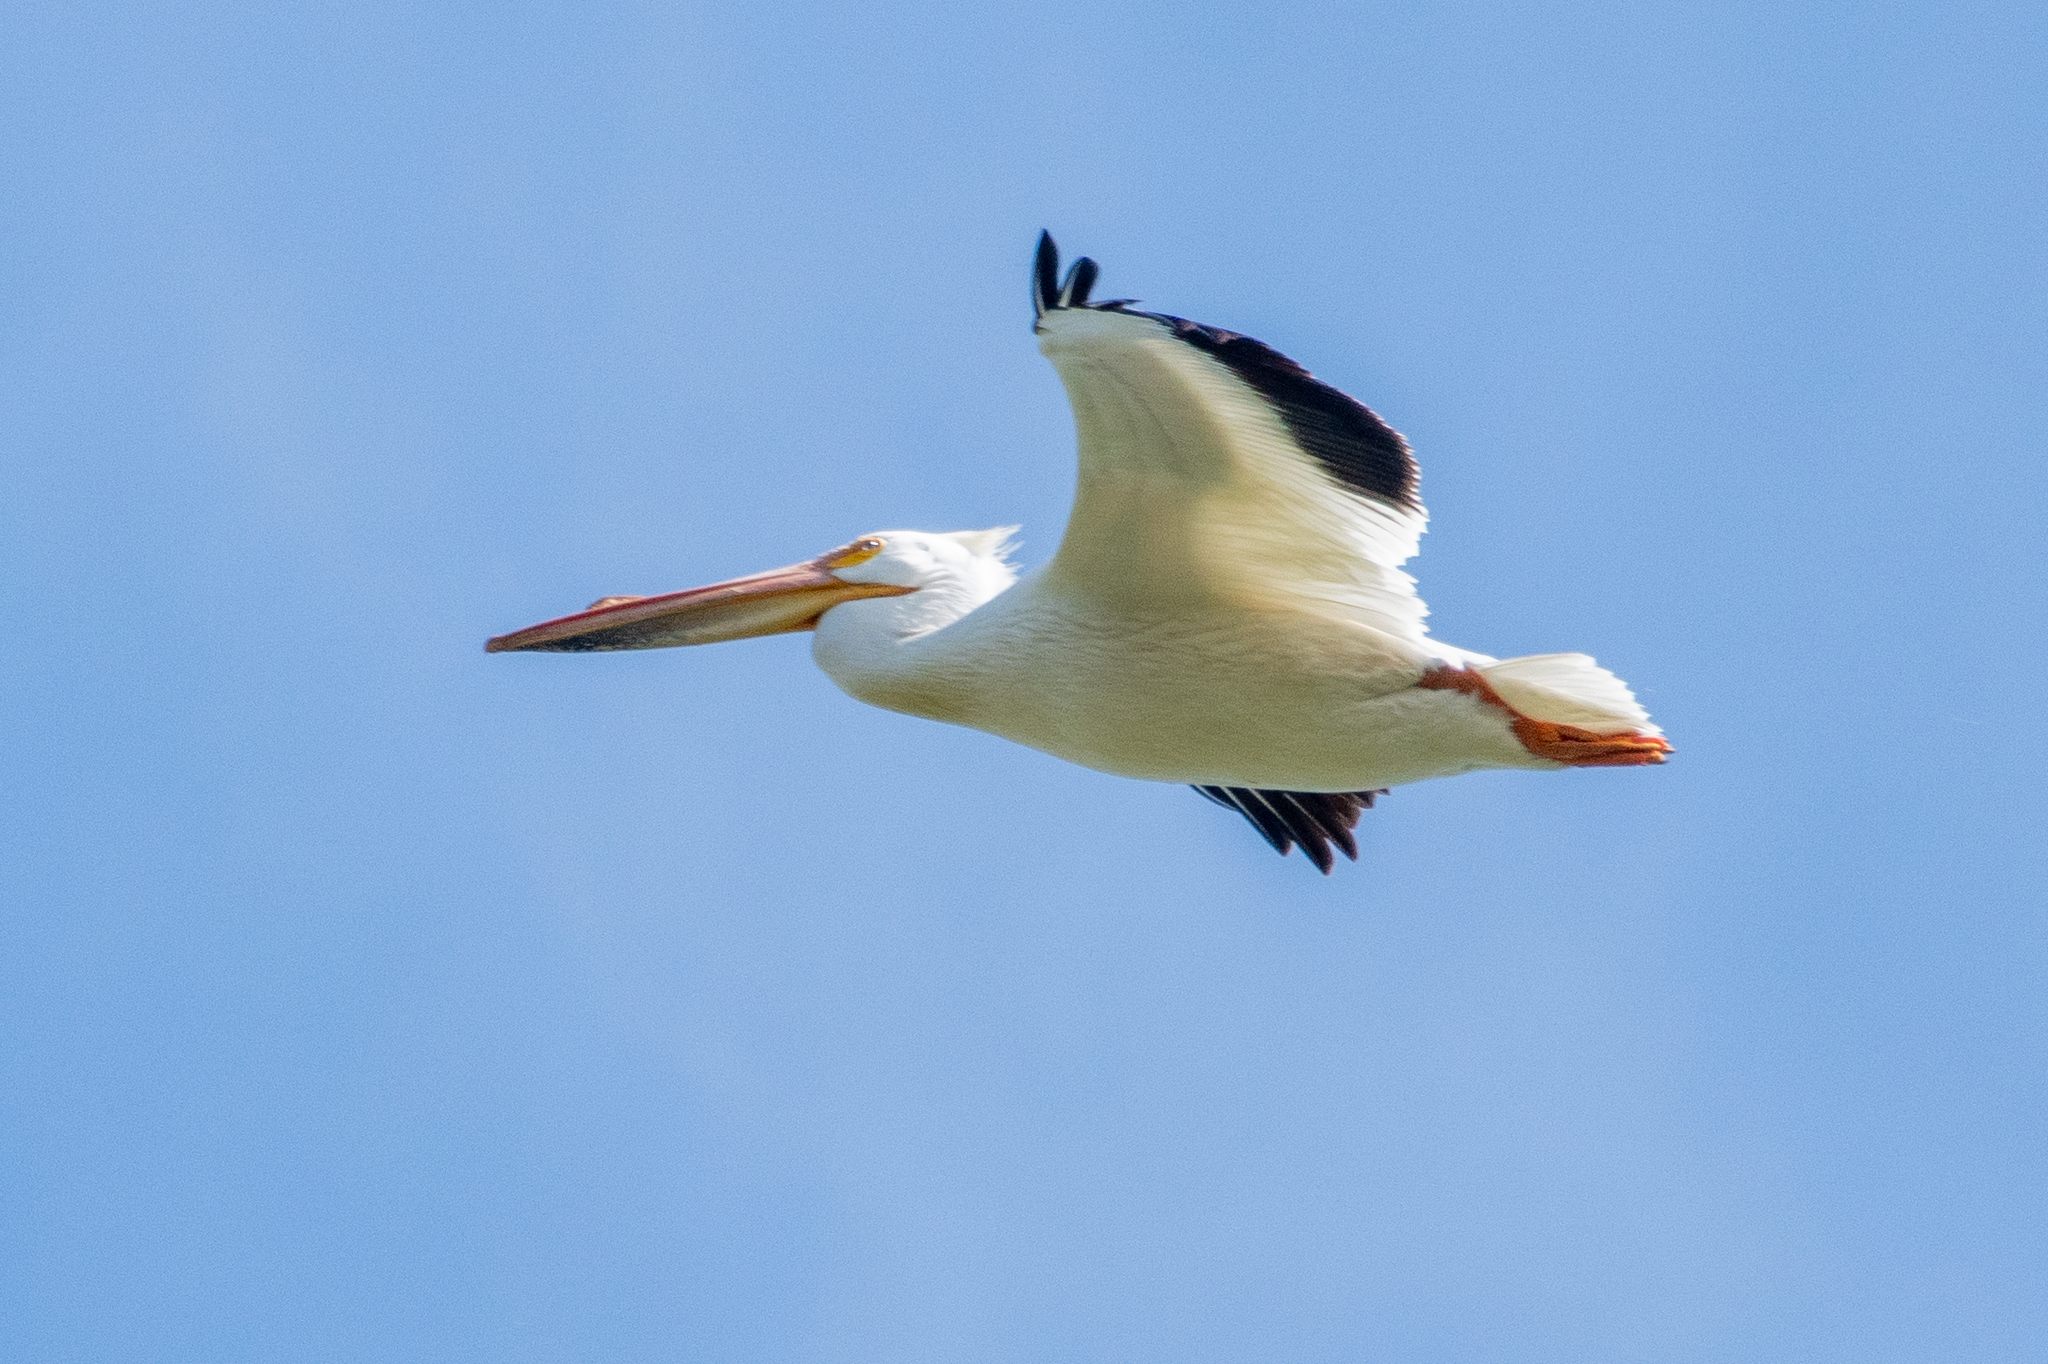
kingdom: Animalia
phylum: Chordata
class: Aves
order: Pelecaniformes
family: Pelecanidae
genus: Pelecanus
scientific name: Pelecanus erythrorhynchos
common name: American white pelican
